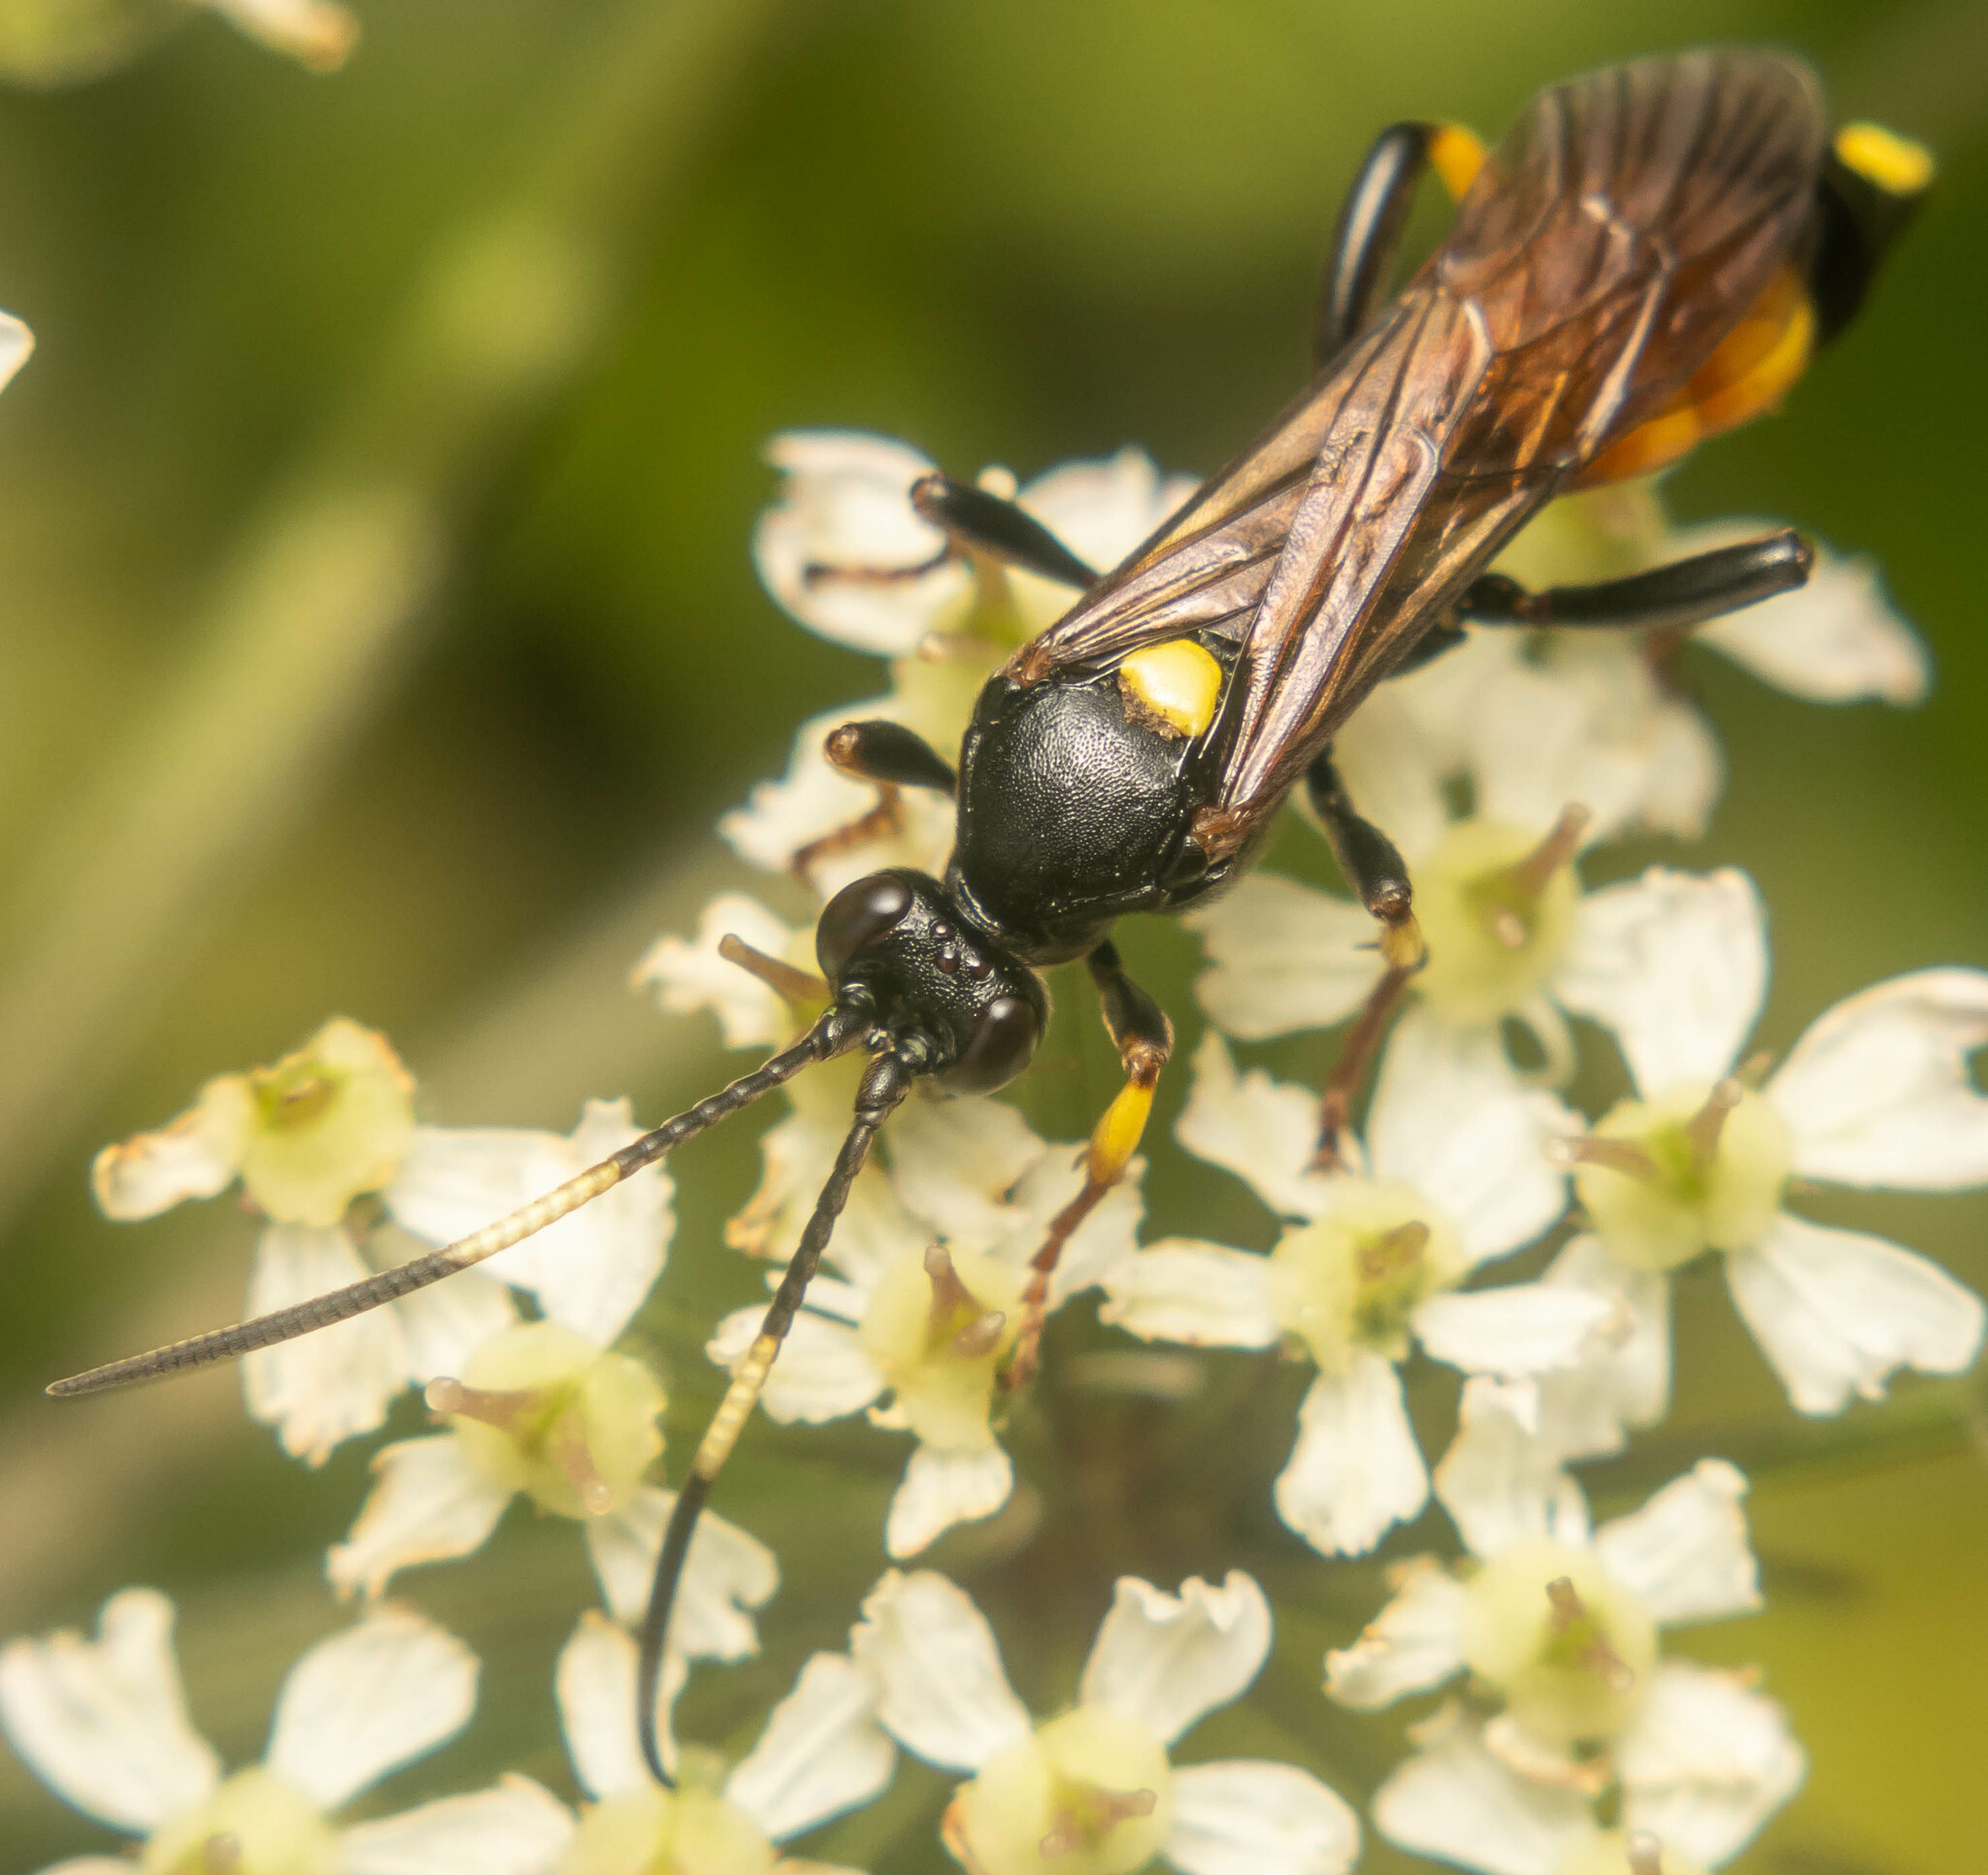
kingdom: Animalia
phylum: Arthropoda
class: Insecta
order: Hymenoptera
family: Ichneumonidae
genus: Ichneumon
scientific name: Ichneumon stramentor
